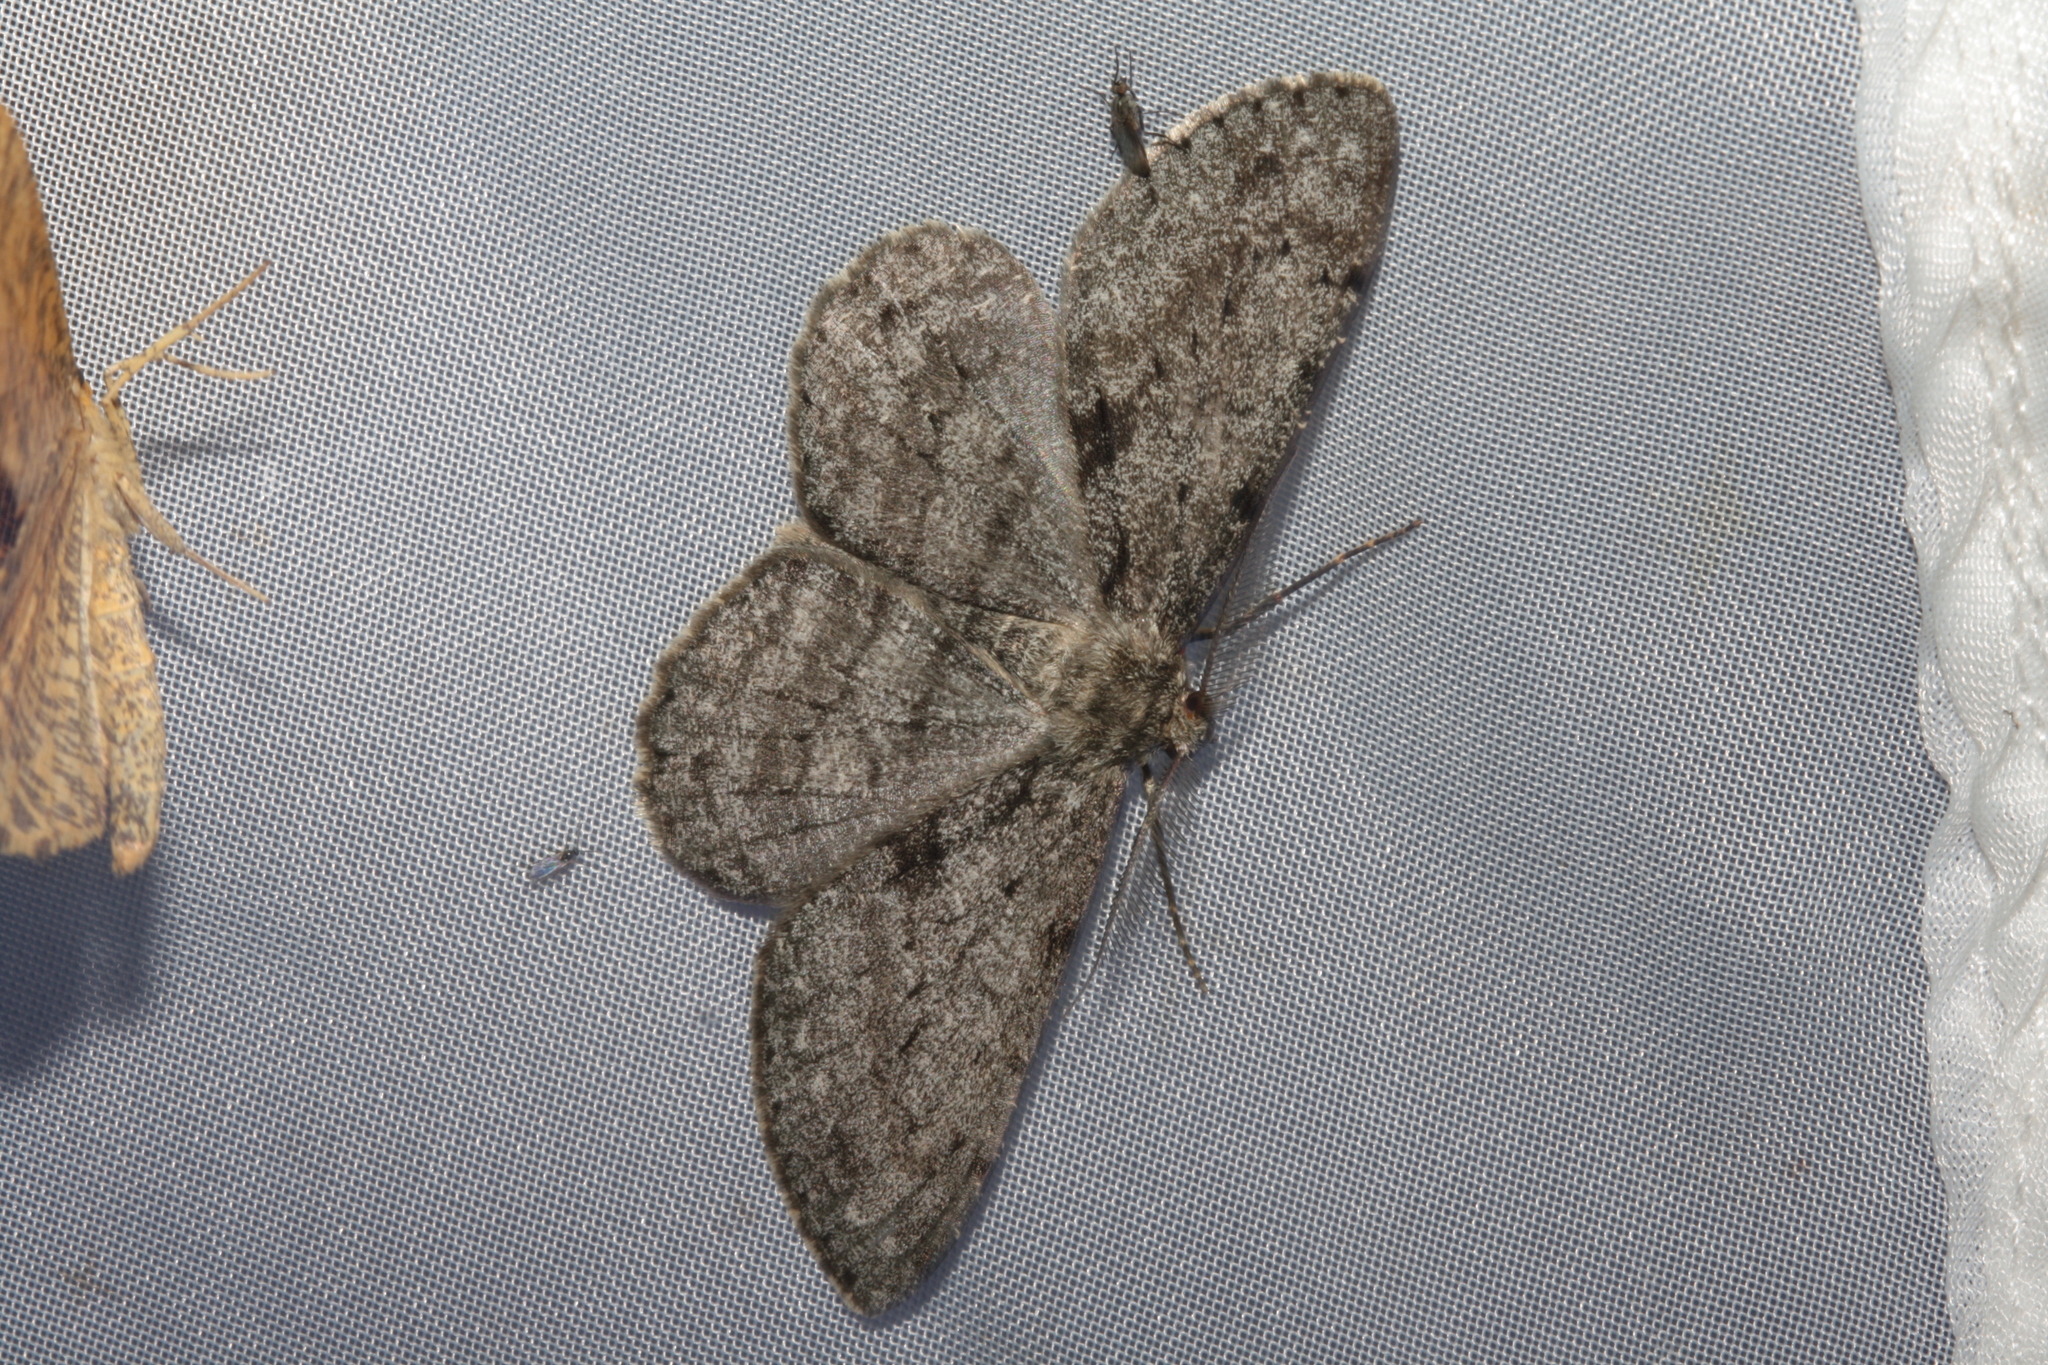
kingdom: Animalia
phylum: Arthropoda
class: Insecta
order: Lepidoptera
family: Geometridae
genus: Hypomecis
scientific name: Hypomecis roboraria
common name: Great oak beauty
